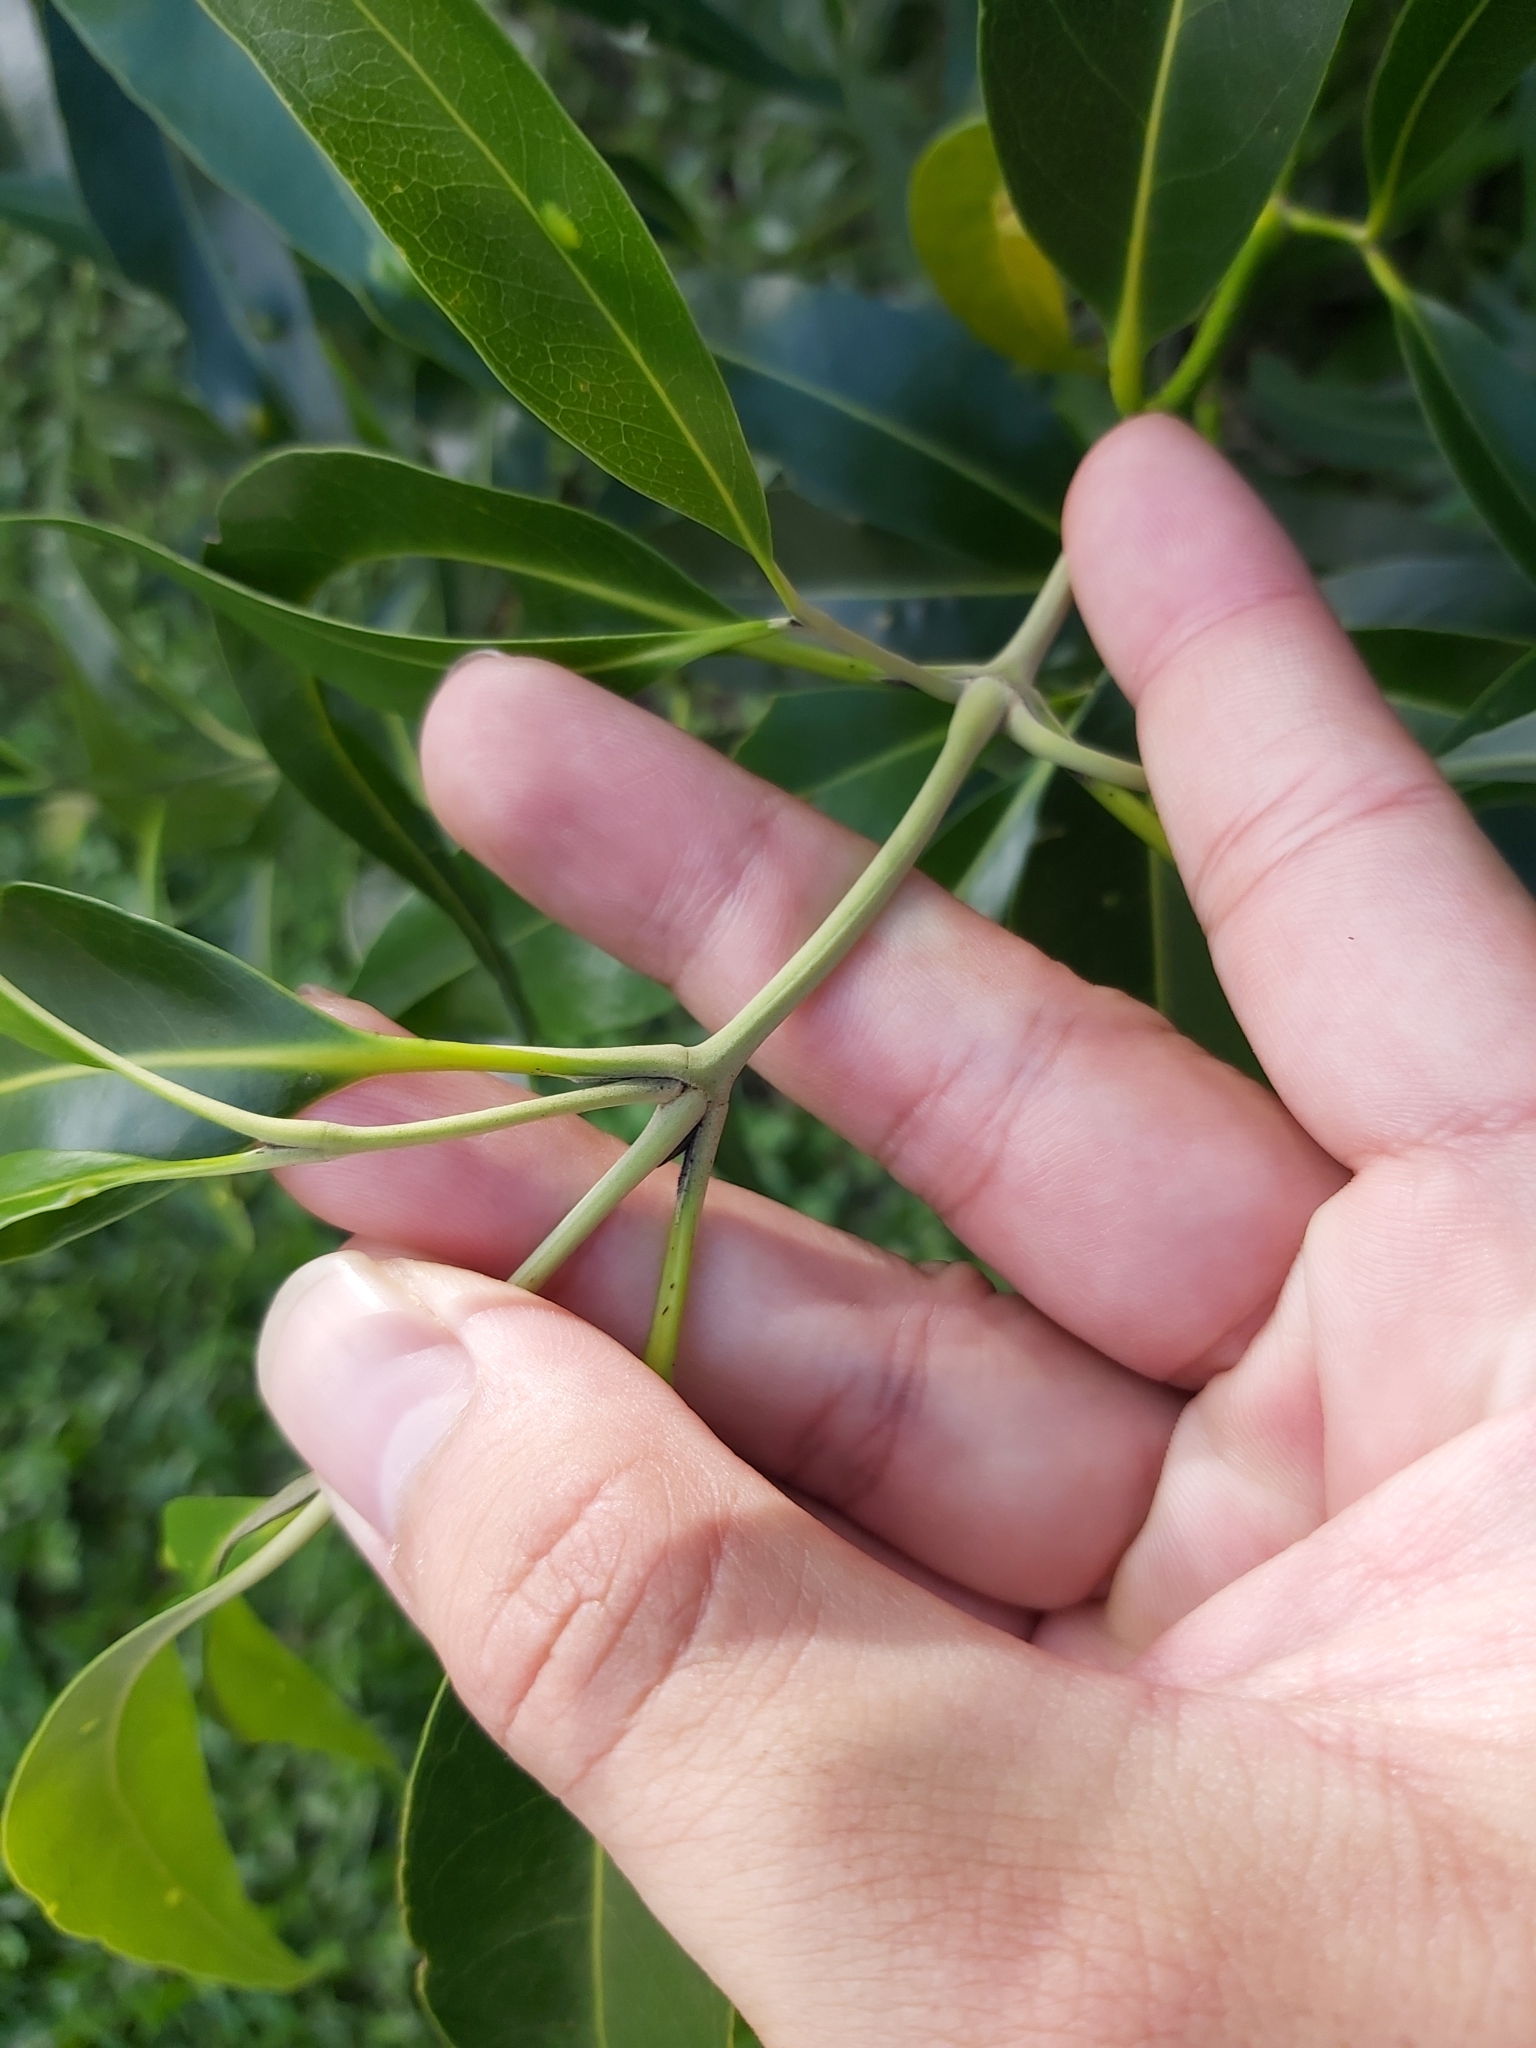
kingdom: Plantae
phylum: Tracheophyta
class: Magnoliopsida
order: Lamiales
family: Acanthaceae
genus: Avicennia
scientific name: Avicennia marina
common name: Gray mangrove
